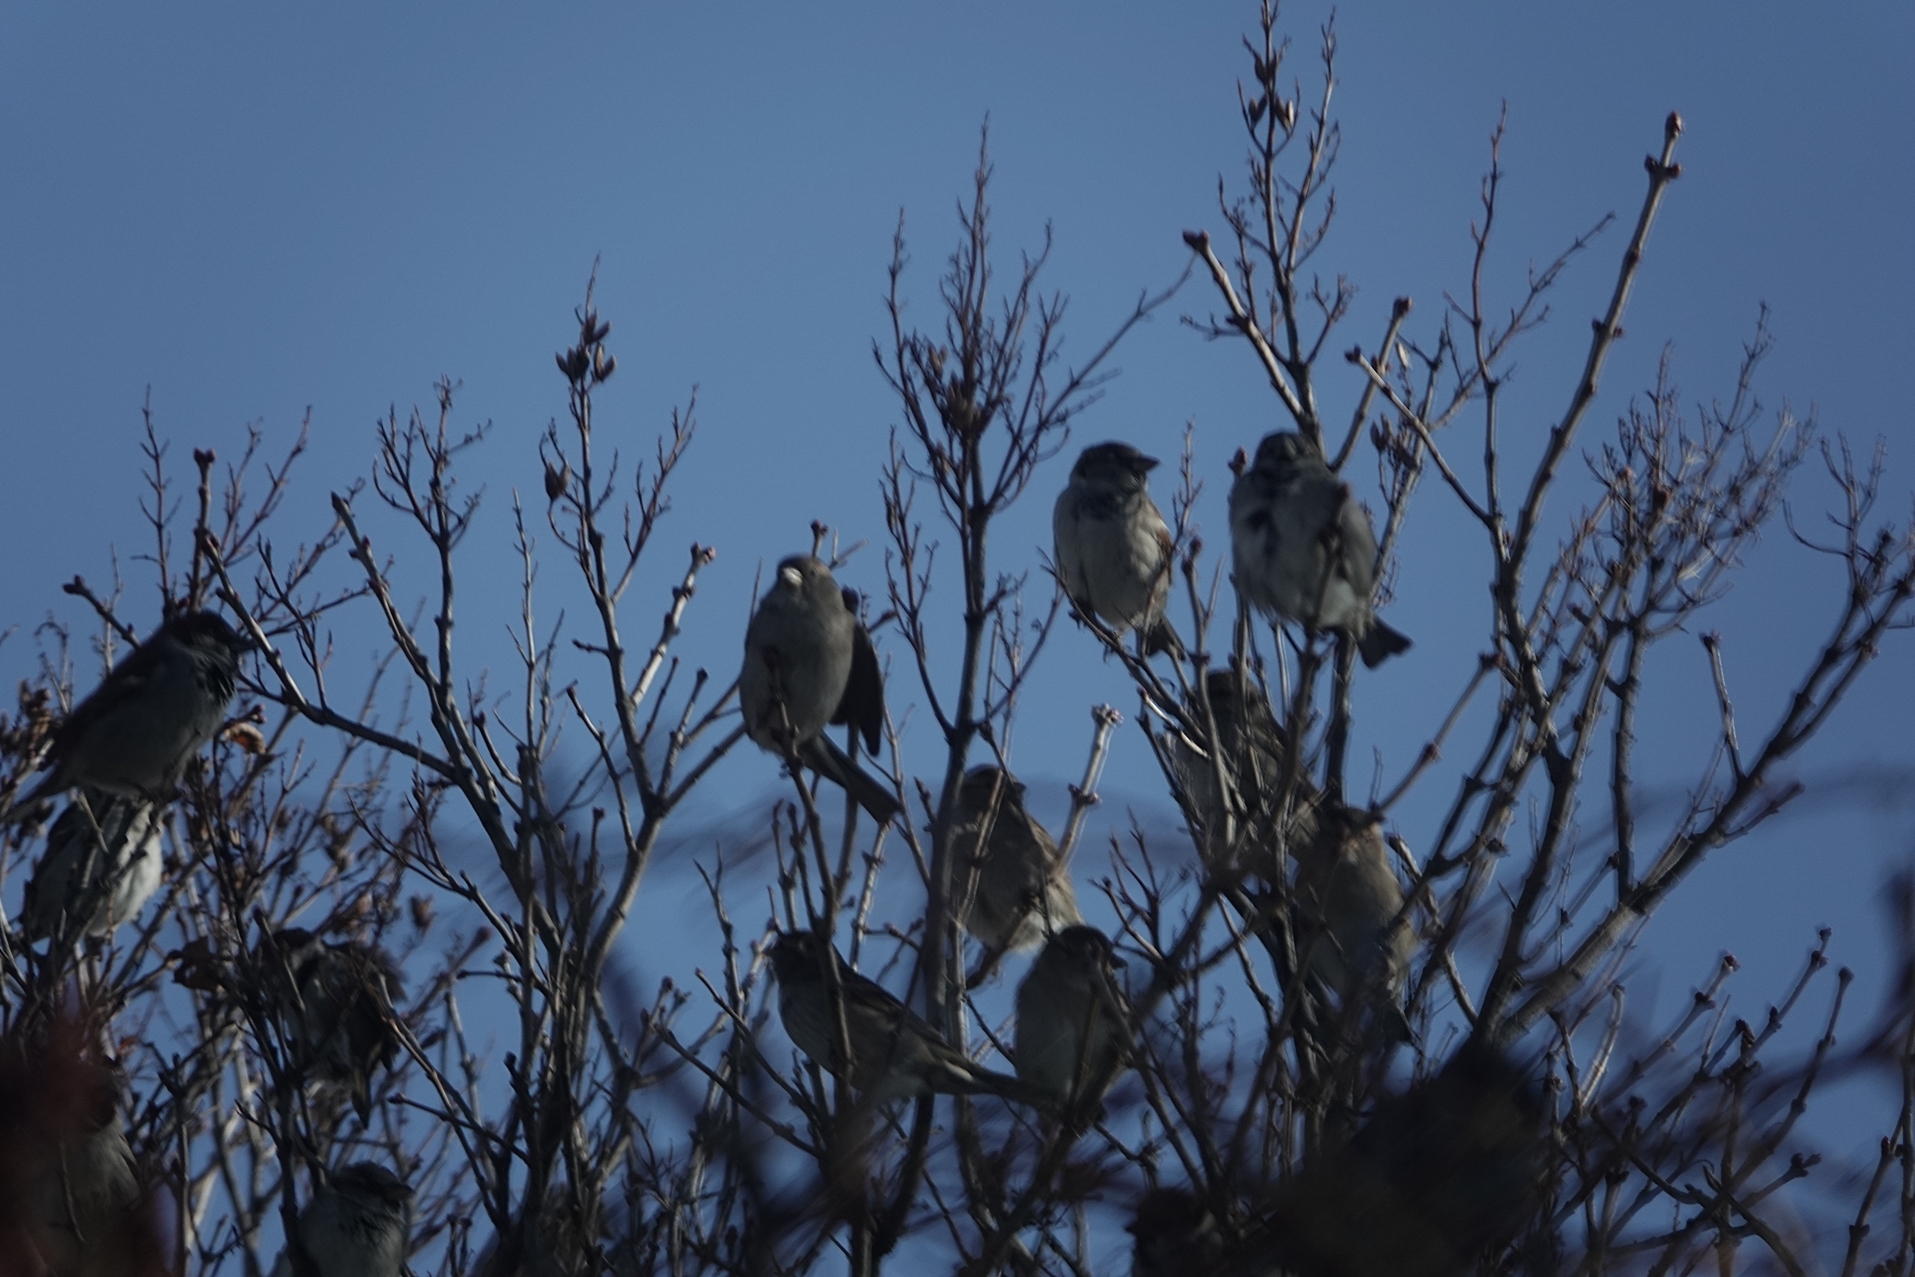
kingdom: Animalia
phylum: Chordata
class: Aves
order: Passeriformes
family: Passeridae
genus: Passer
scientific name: Passer domesticus
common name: House sparrow
